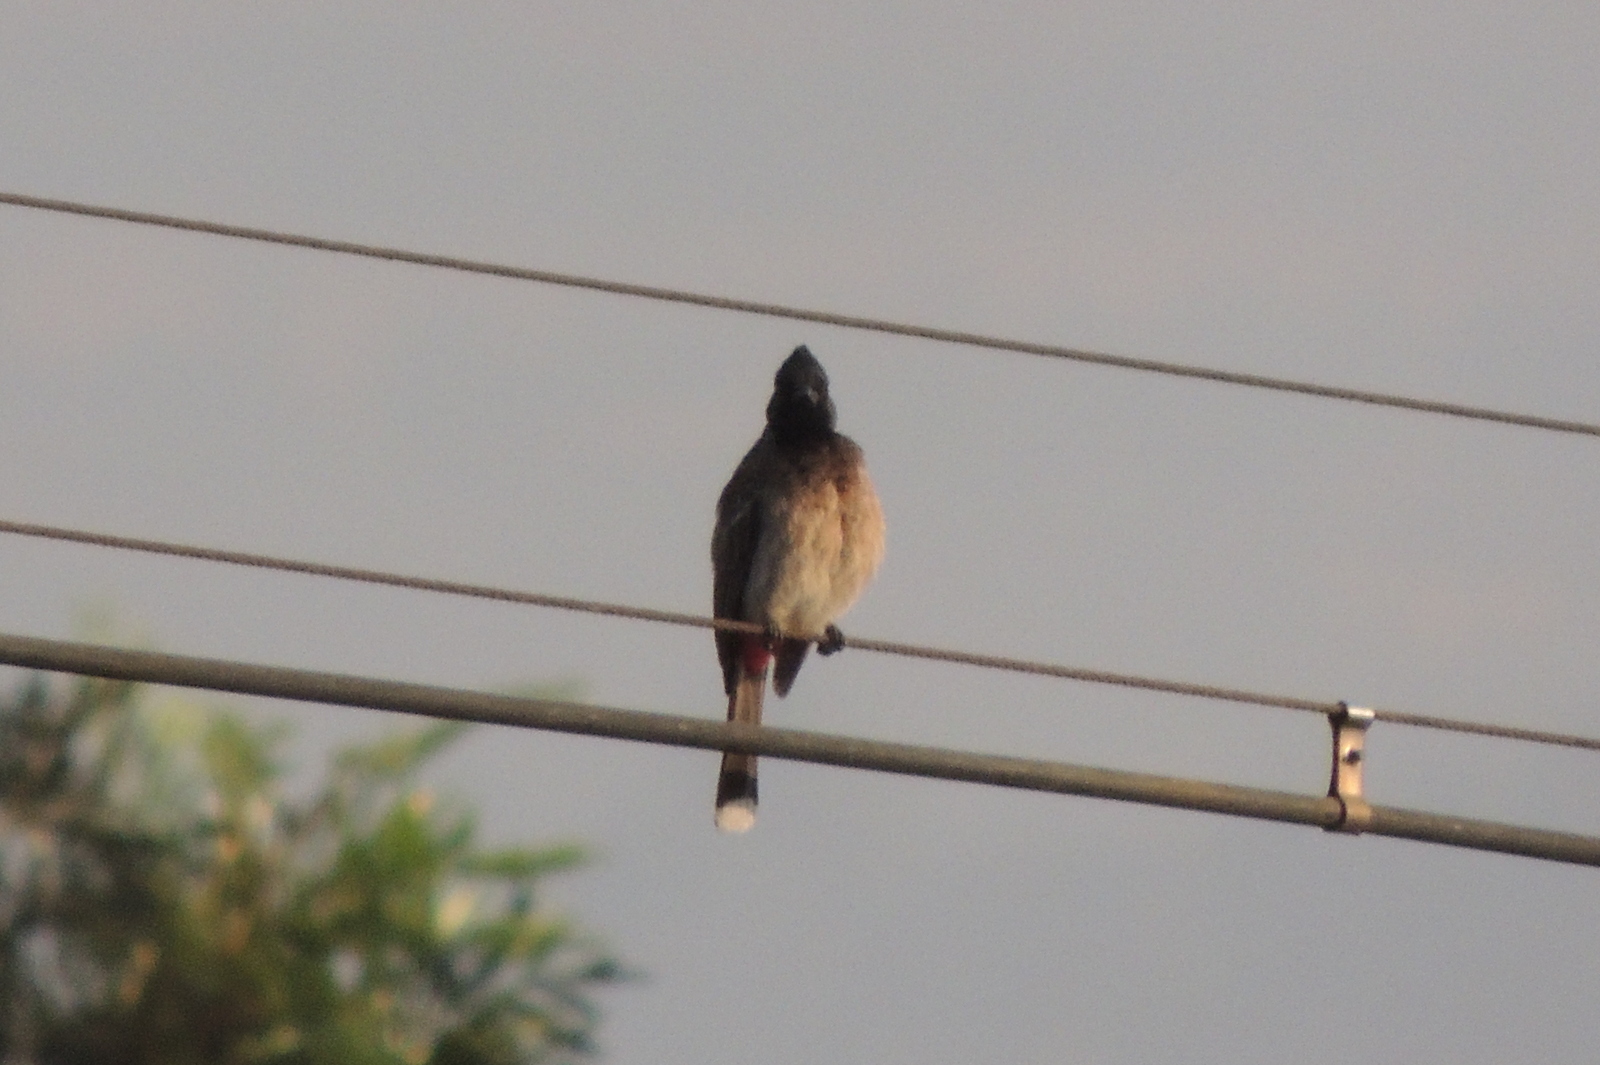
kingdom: Animalia
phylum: Chordata
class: Aves
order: Passeriformes
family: Pycnonotidae
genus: Pycnonotus
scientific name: Pycnonotus cafer
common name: Red-vented bulbul
